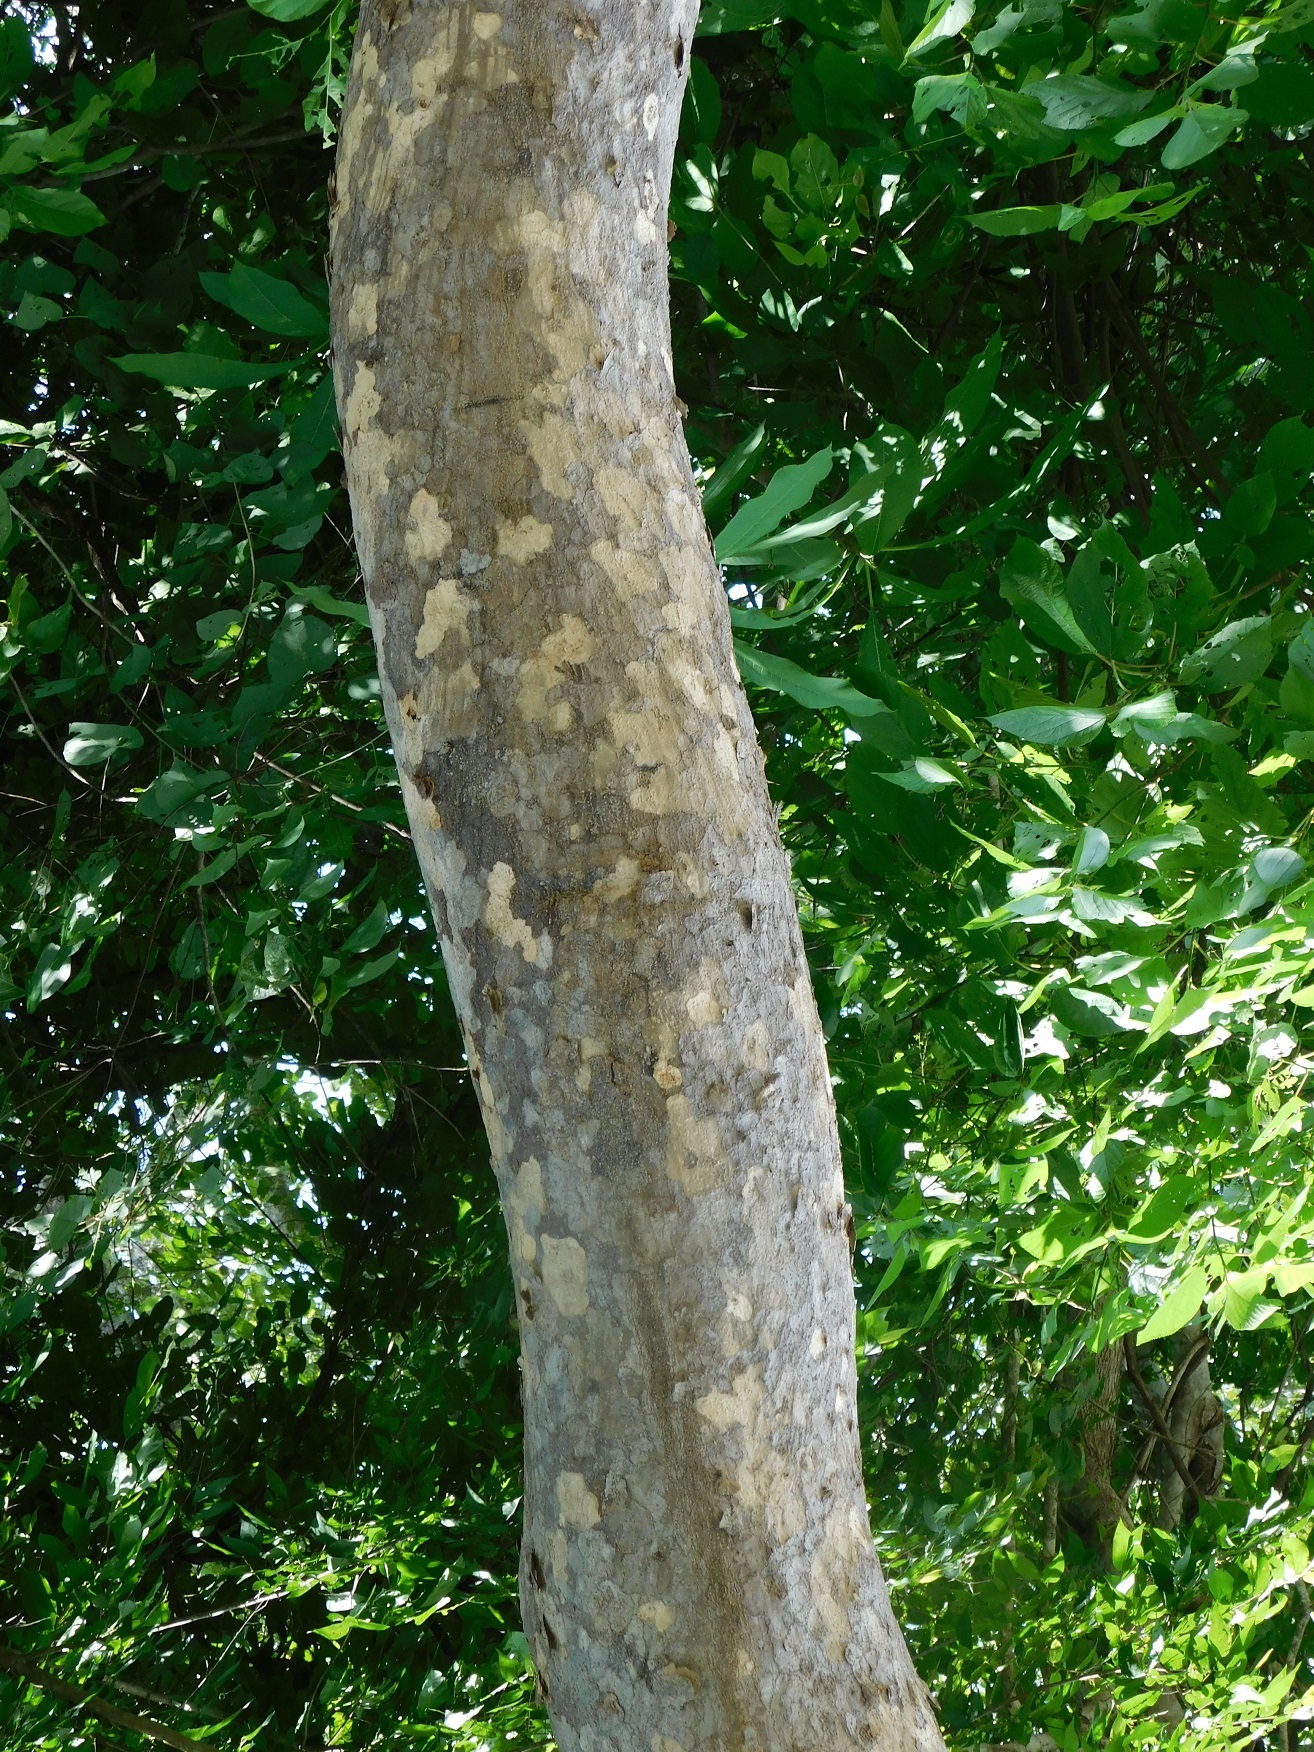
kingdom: Plantae
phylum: Tracheophyta
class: Magnoliopsida
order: Sapindales
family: Anacardiaceae
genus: Astronium
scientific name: Astronium graveolens
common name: Glassywood
